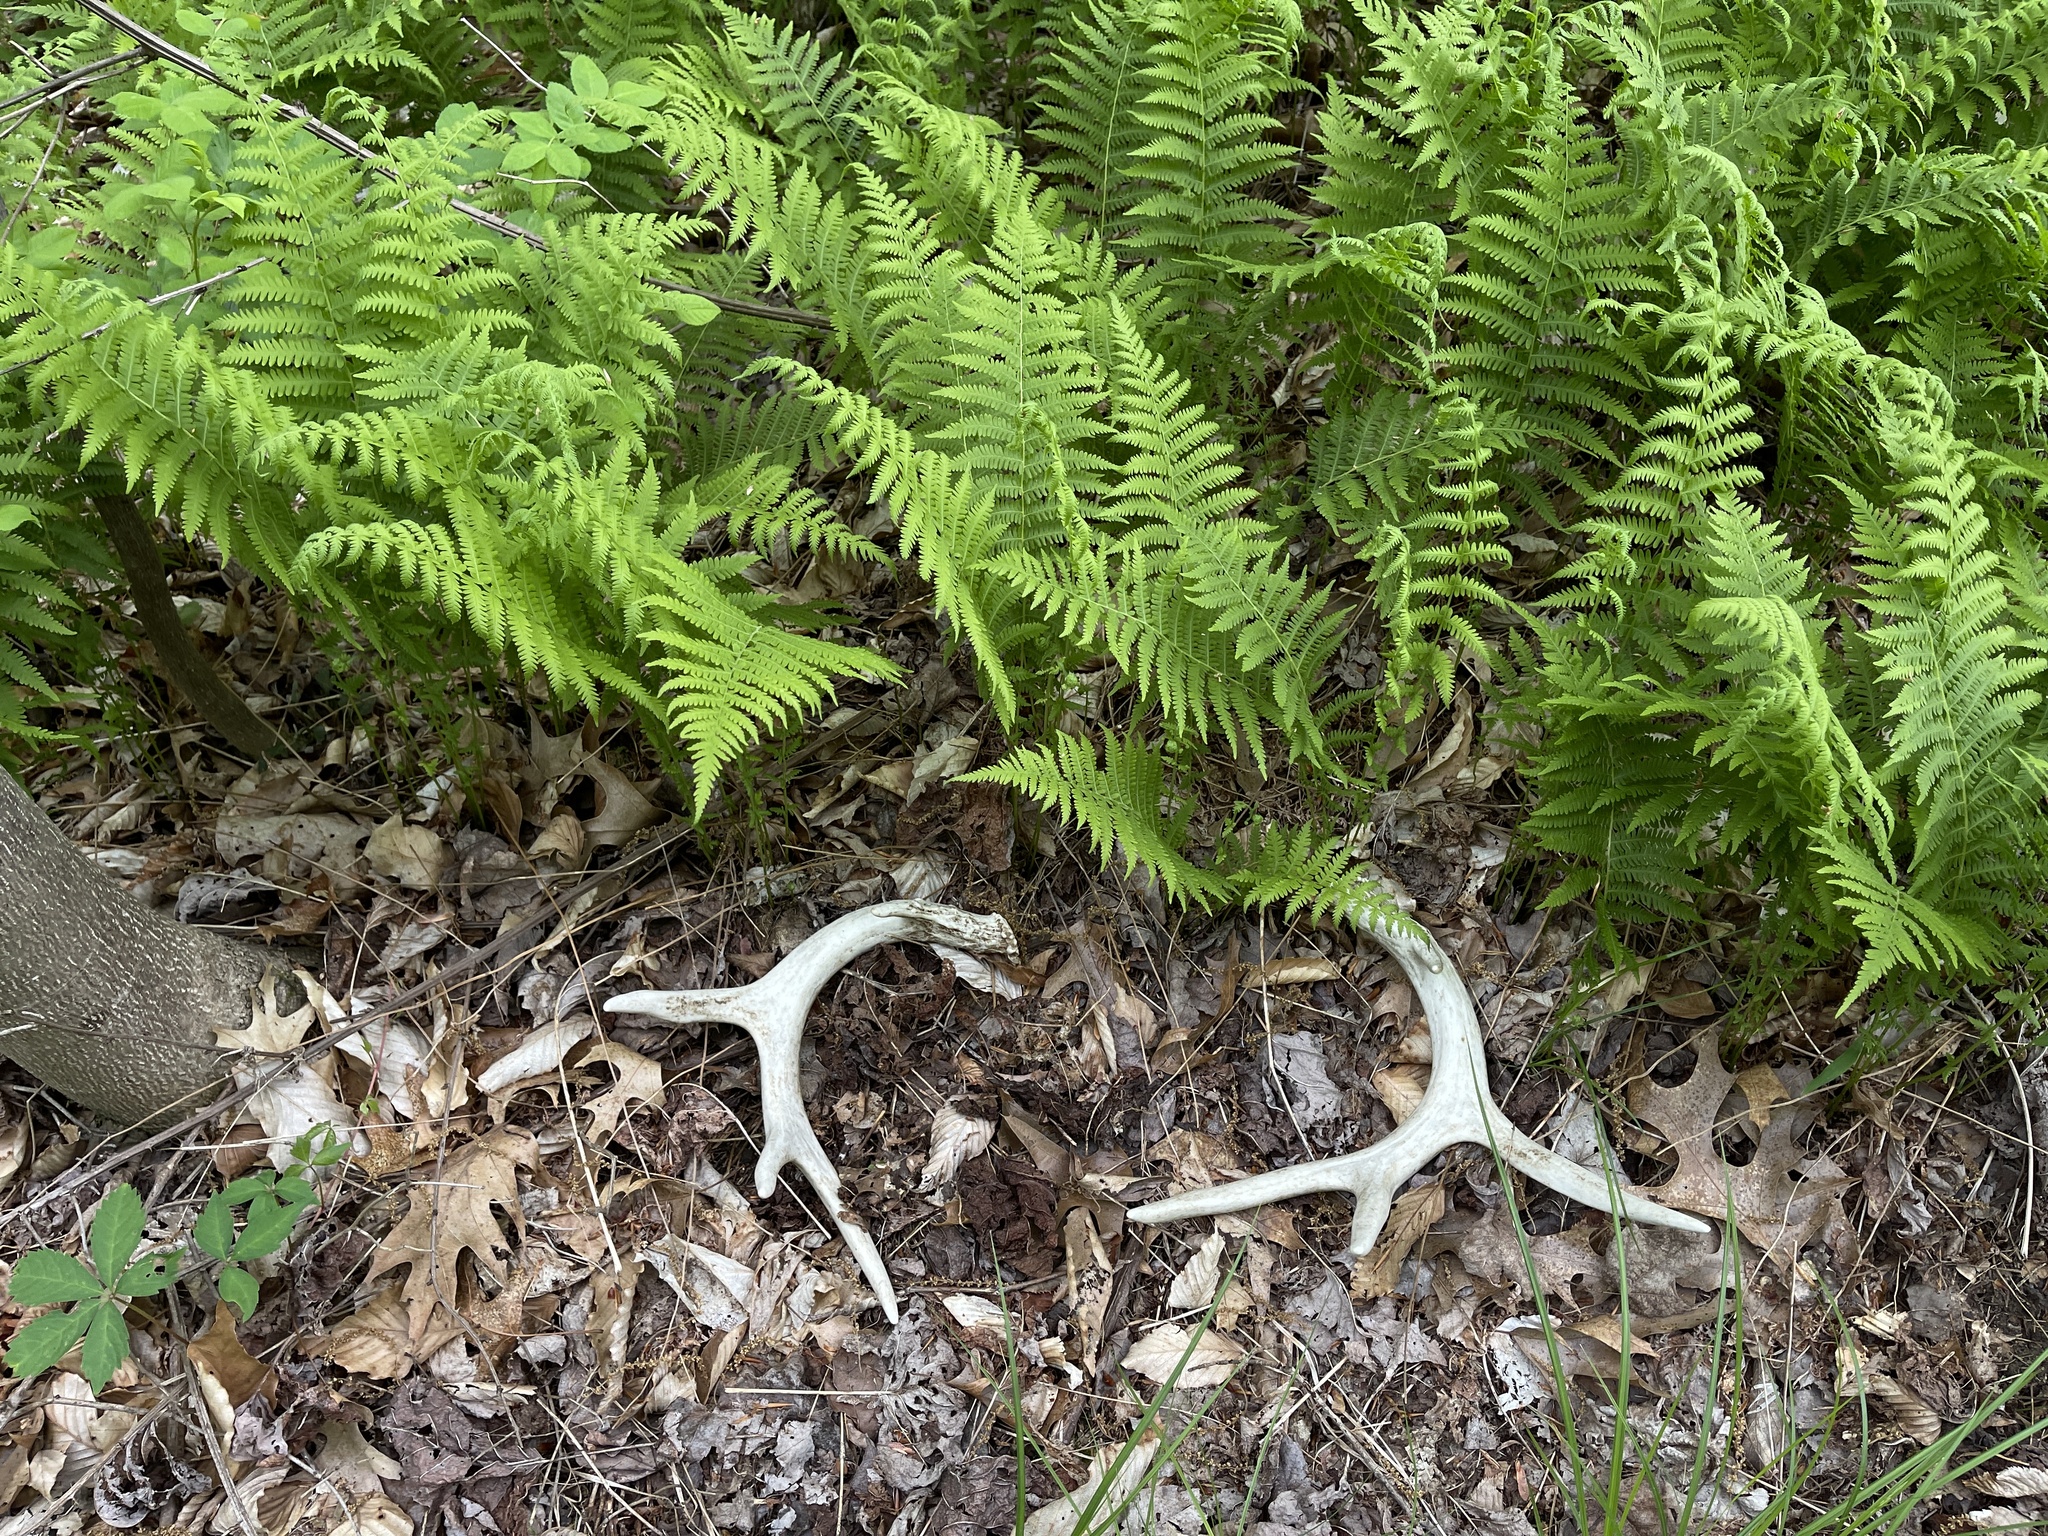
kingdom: Animalia
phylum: Chordata
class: Mammalia
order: Artiodactyla
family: Cervidae
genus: Odocoileus
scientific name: Odocoileus virginianus
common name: White-tailed deer
